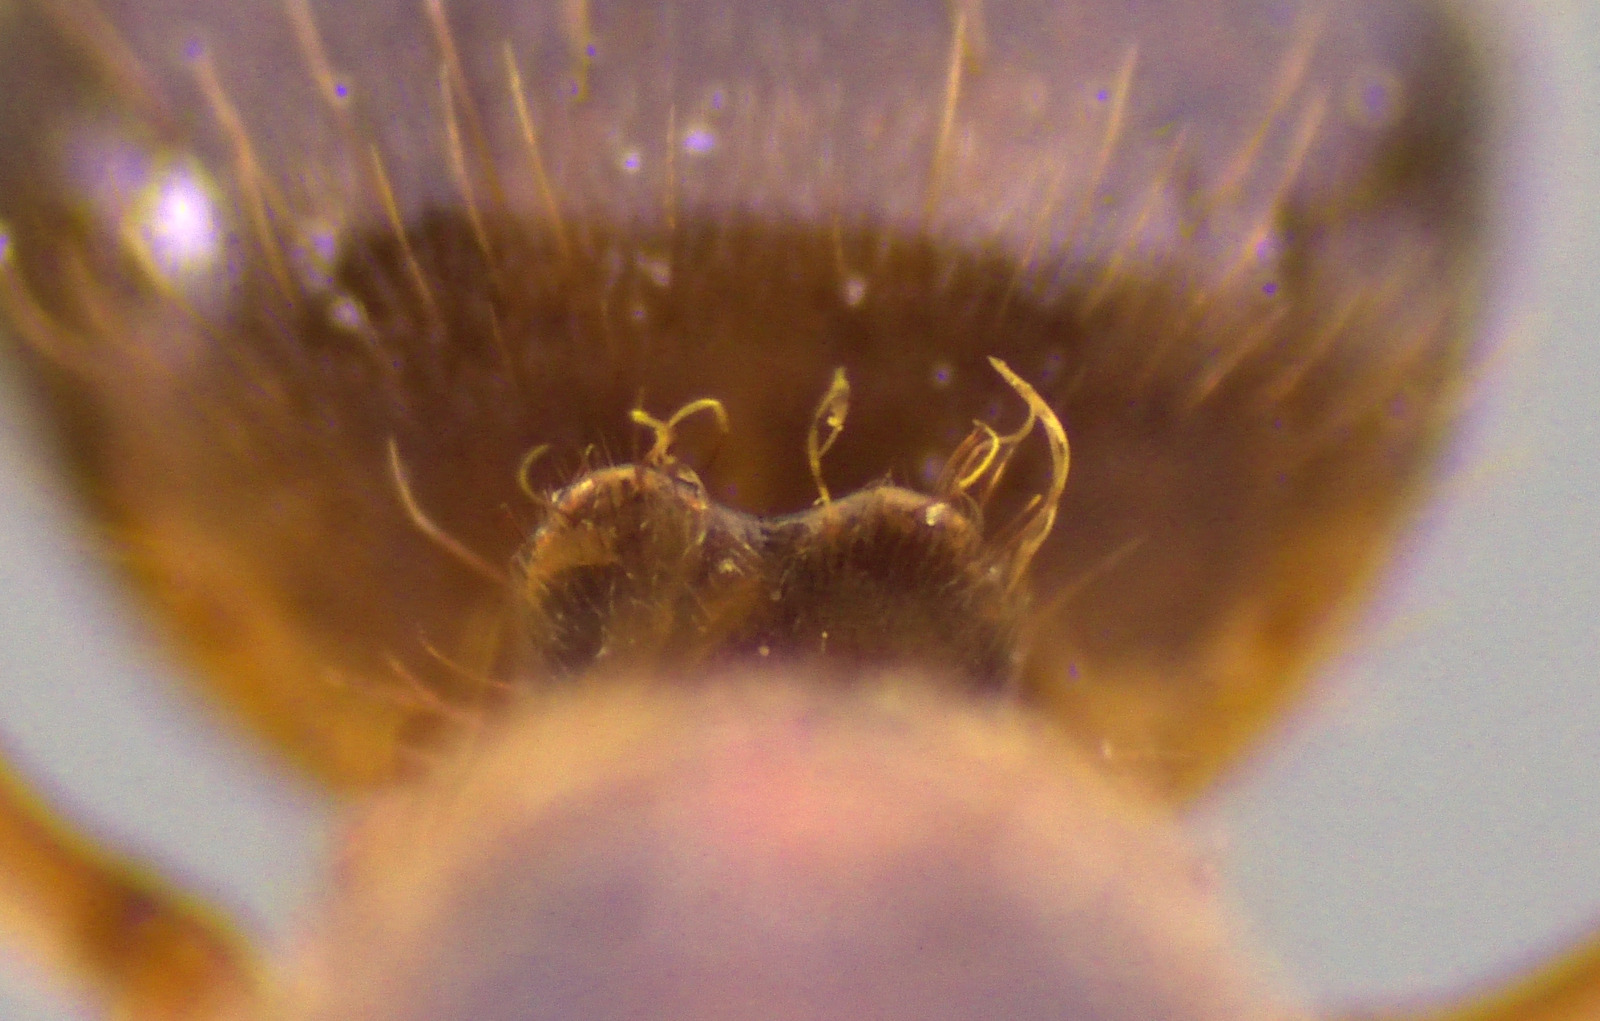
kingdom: Animalia
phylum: Arthropoda
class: Insecta
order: Hymenoptera
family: Formicidae
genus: Lasius
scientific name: Lasius claviger
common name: Common citronella ant
